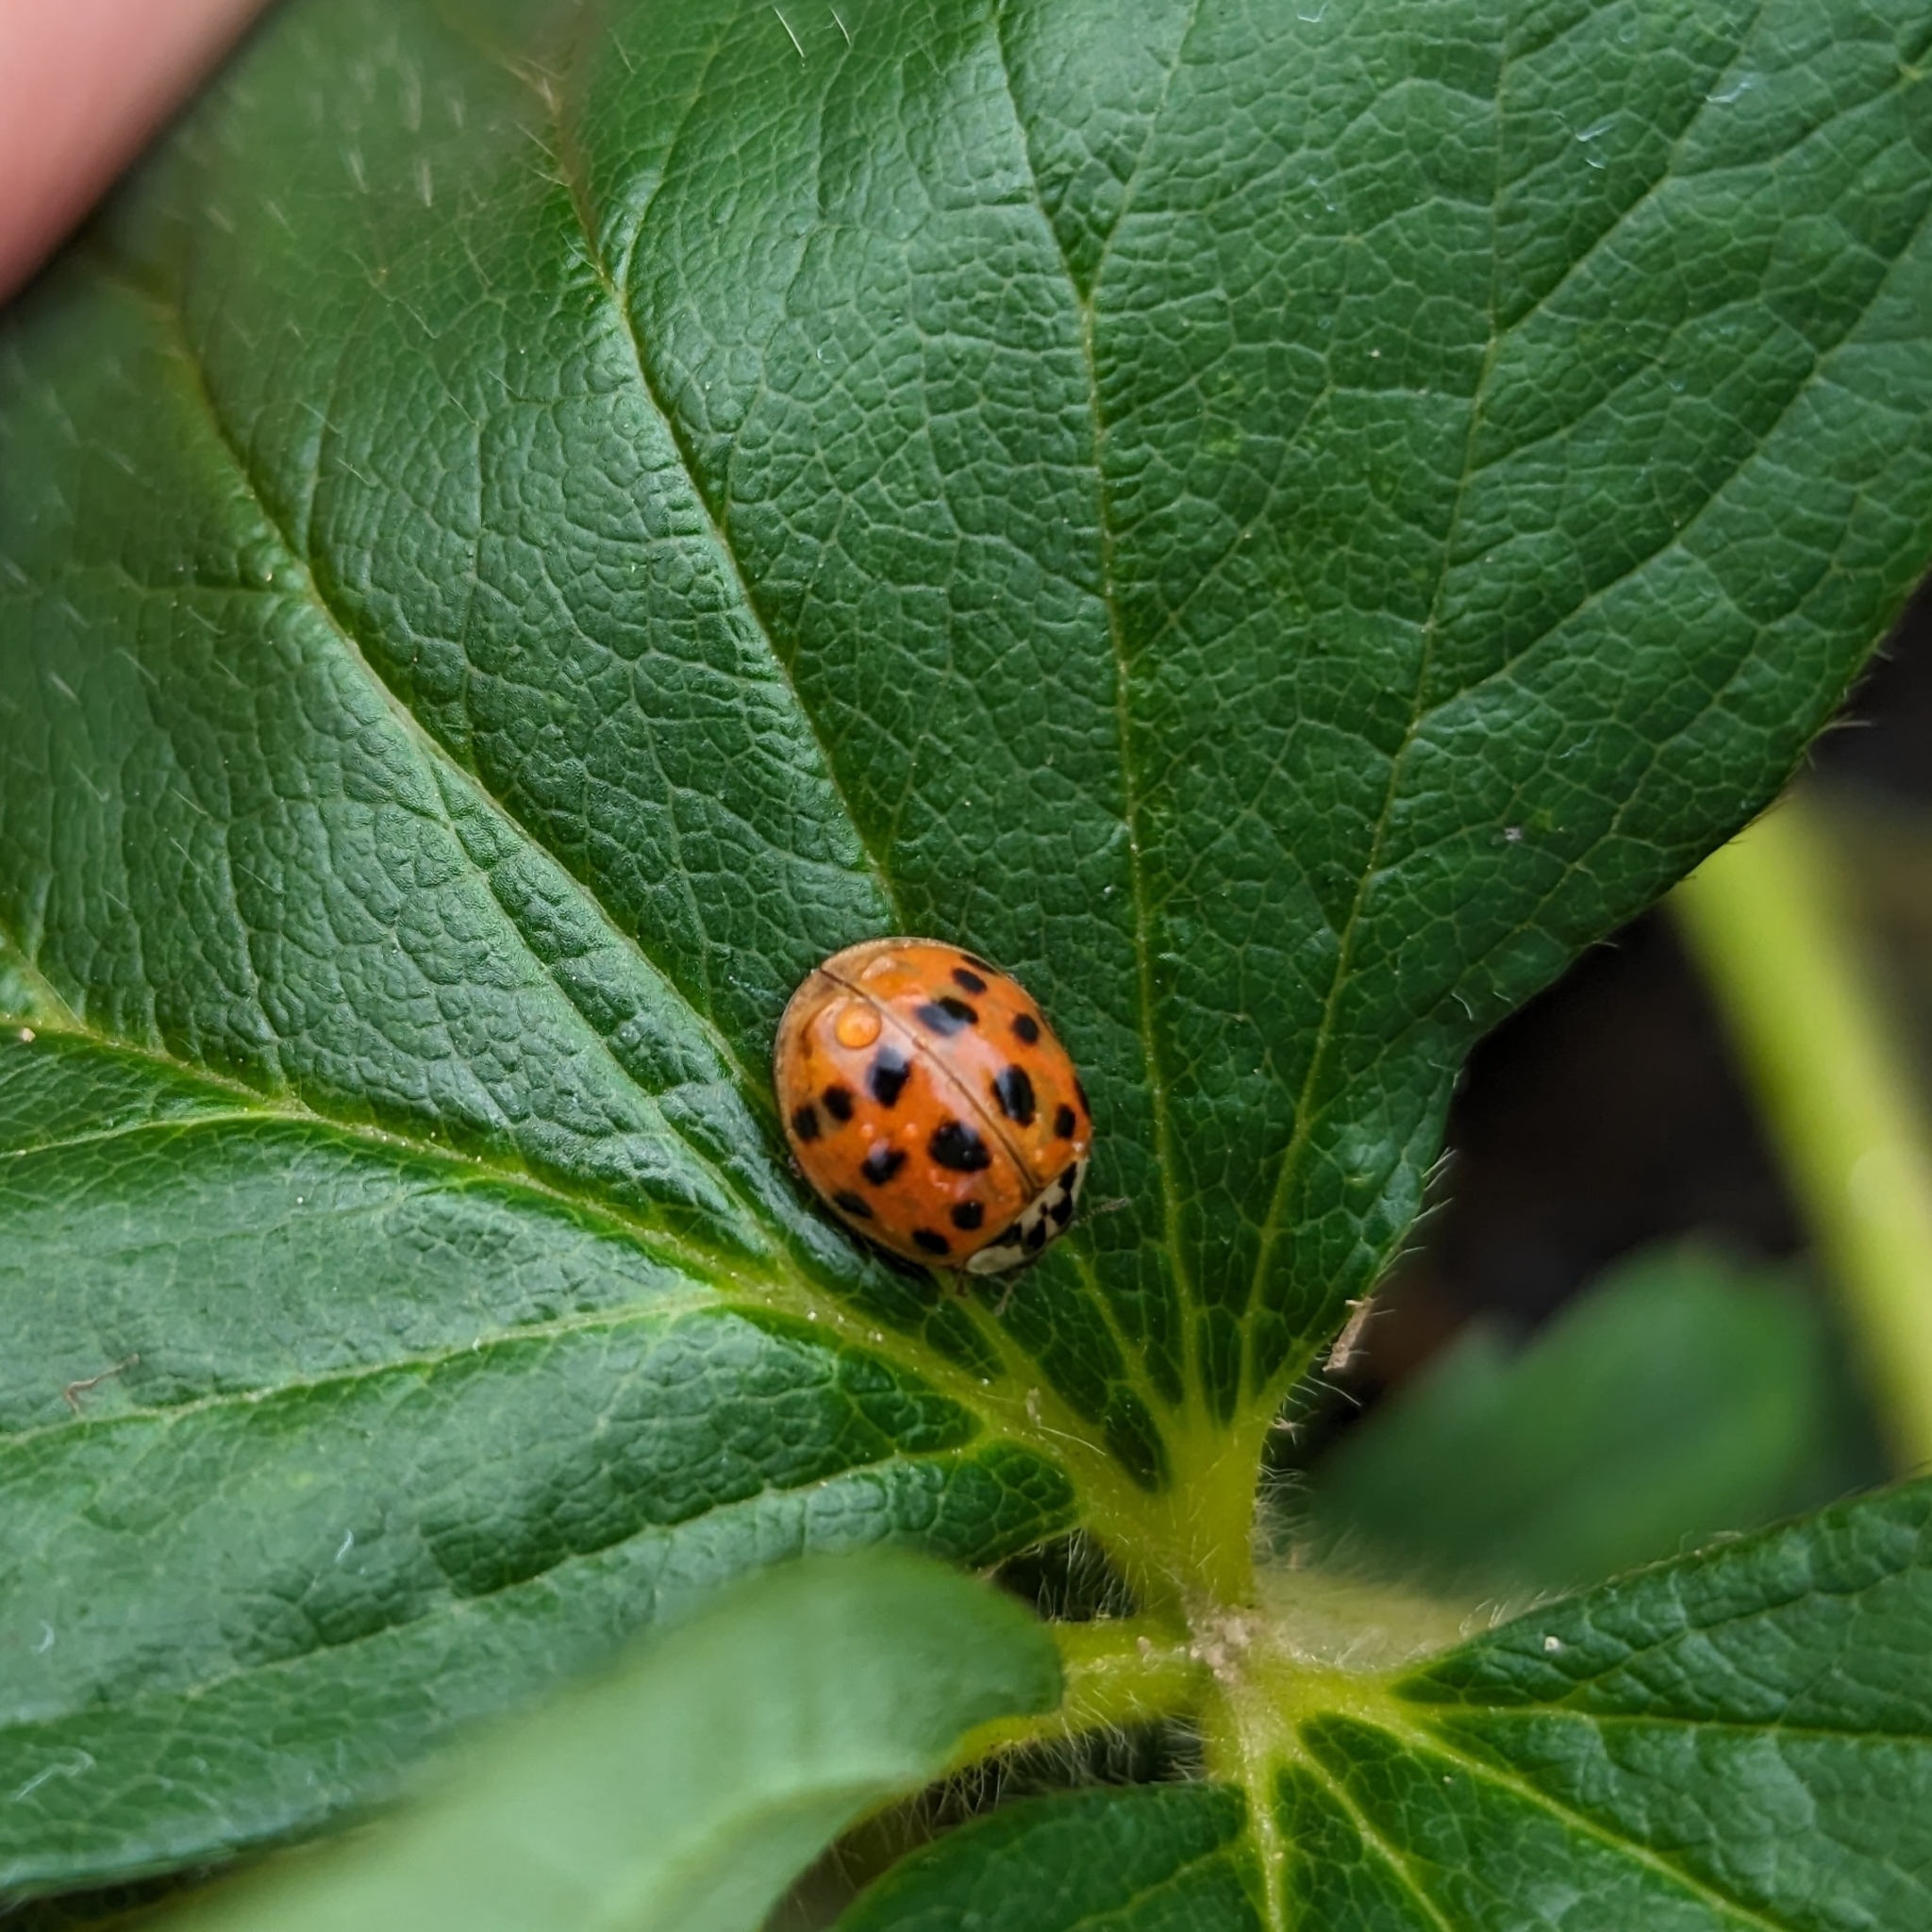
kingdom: Animalia
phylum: Arthropoda
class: Insecta
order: Coleoptera
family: Coccinellidae
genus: Harmonia
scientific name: Harmonia axyridis
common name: Harlequin ladybird
